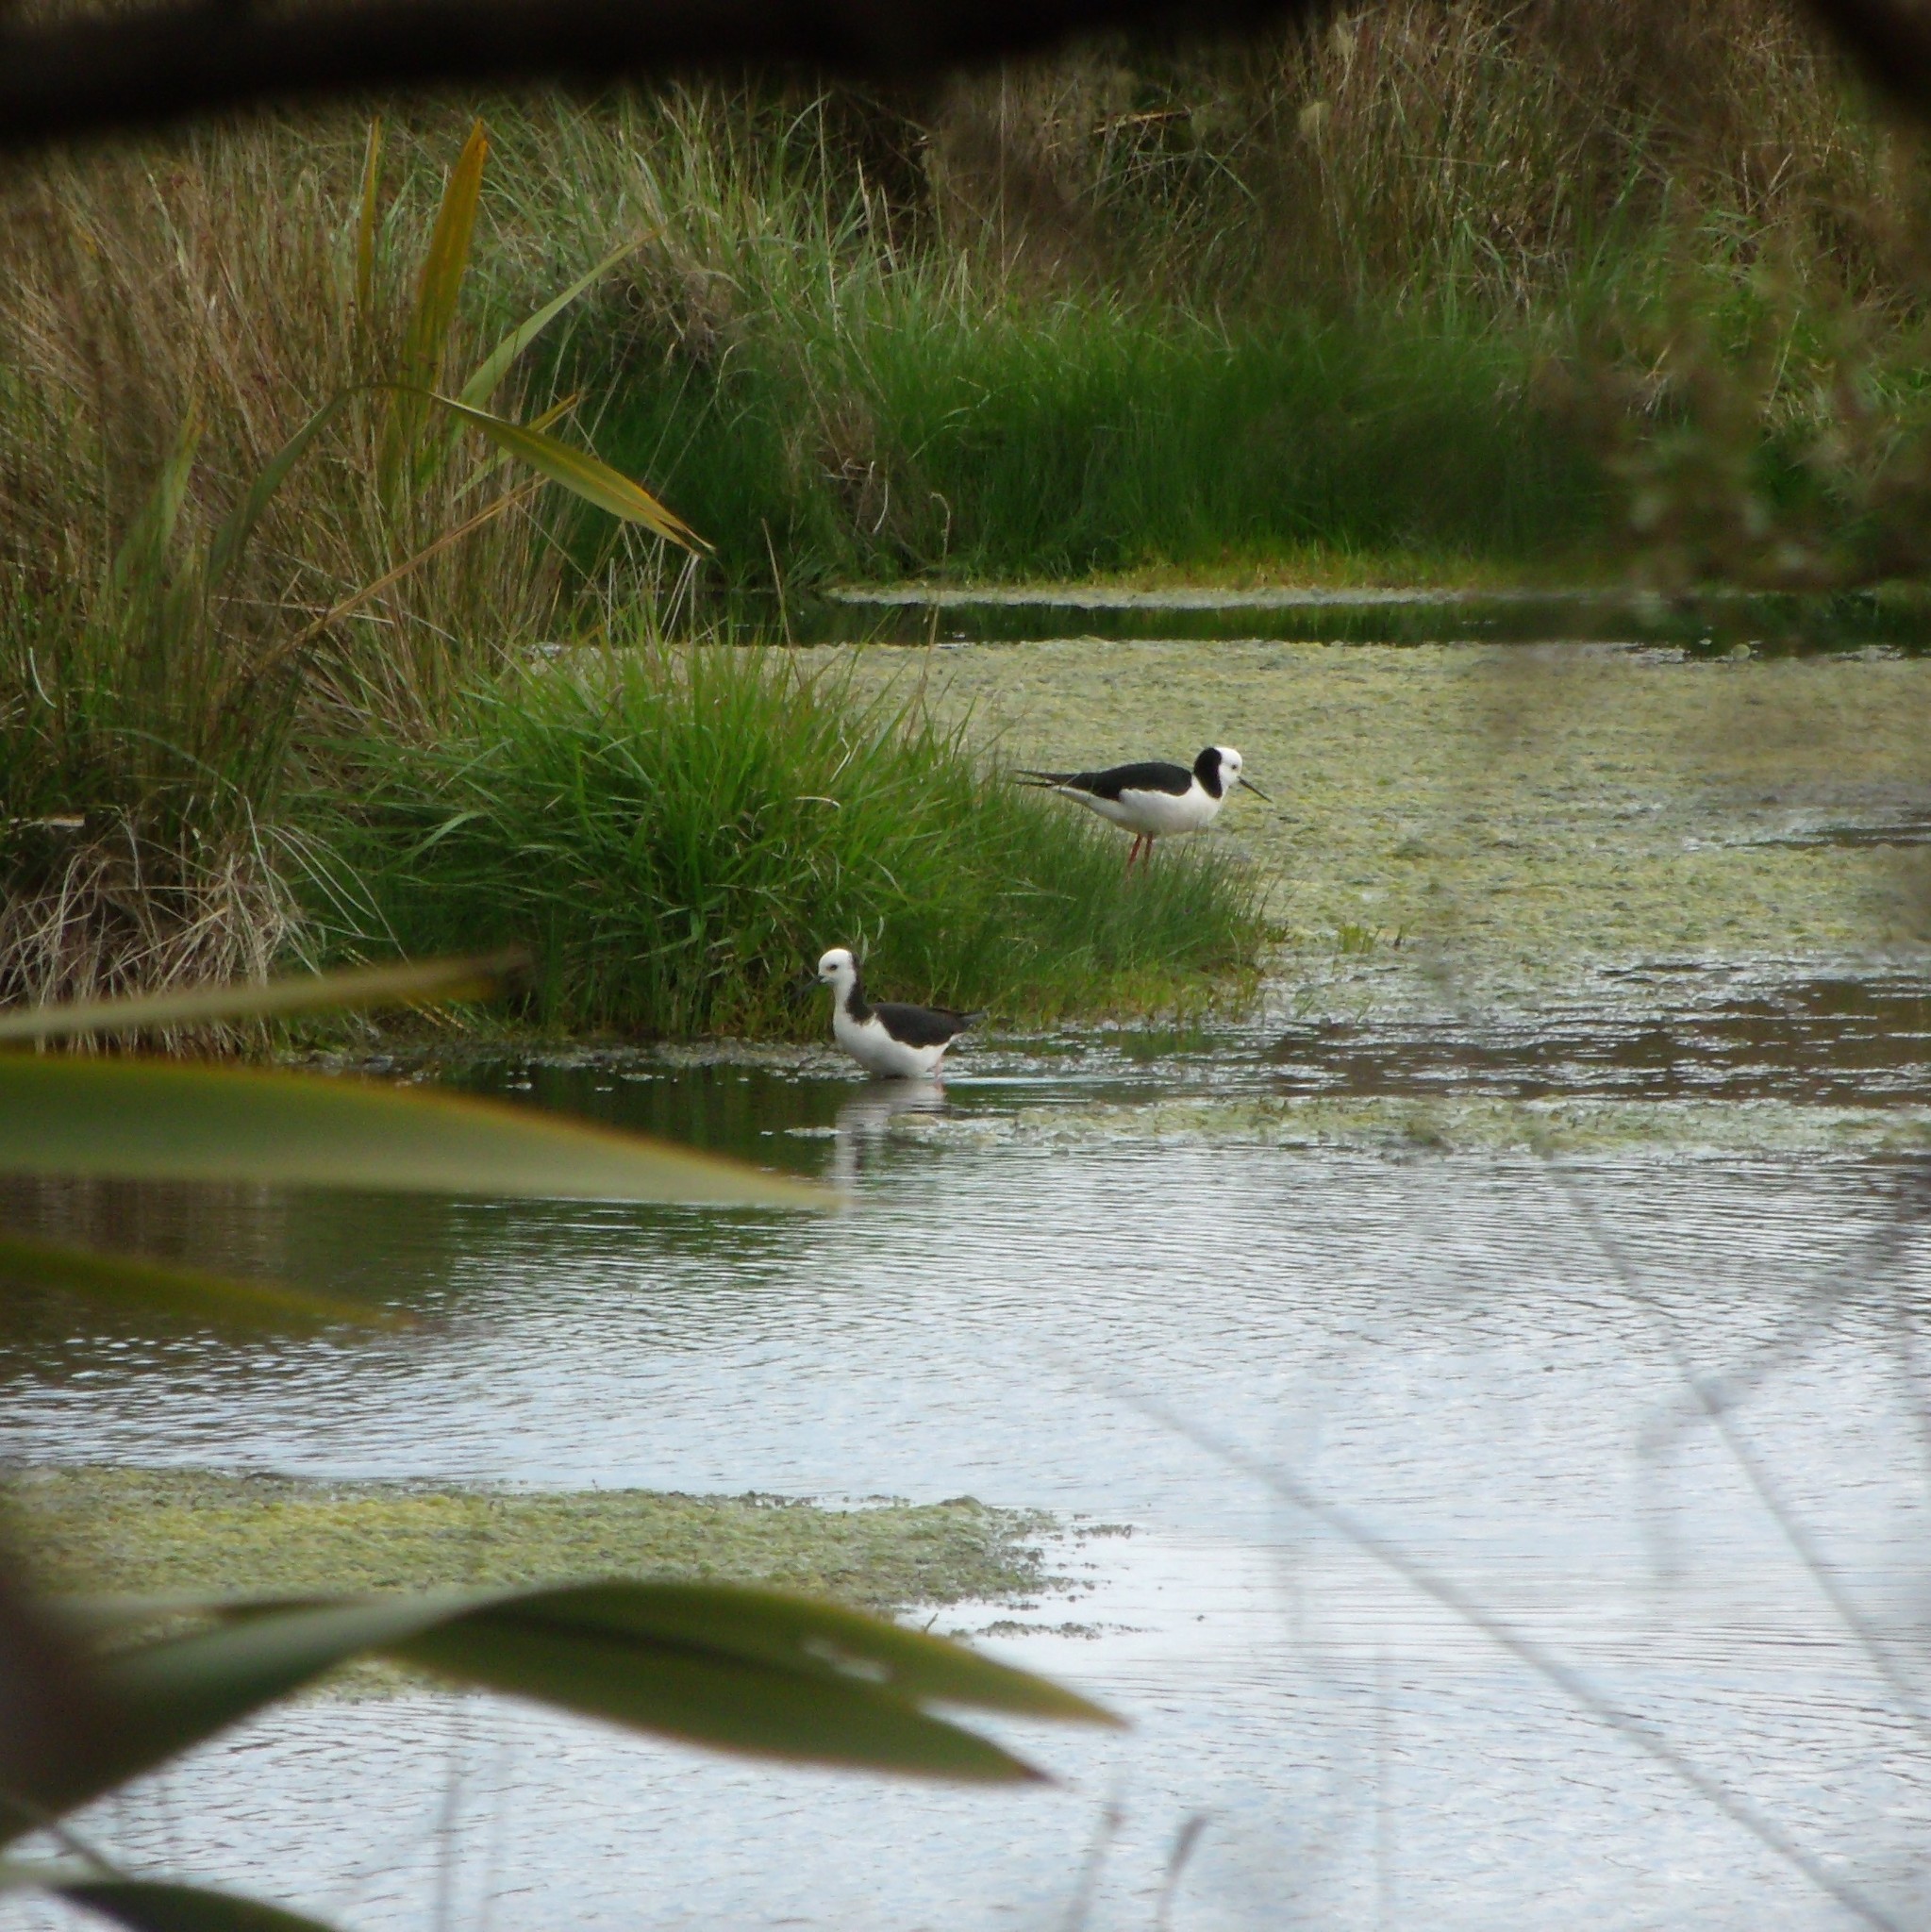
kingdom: Animalia
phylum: Chordata
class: Aves
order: Charadriiformes
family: Recurvirostridae
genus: Himantopus
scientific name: Himantopus leucocephalus
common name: White-headed stilt
